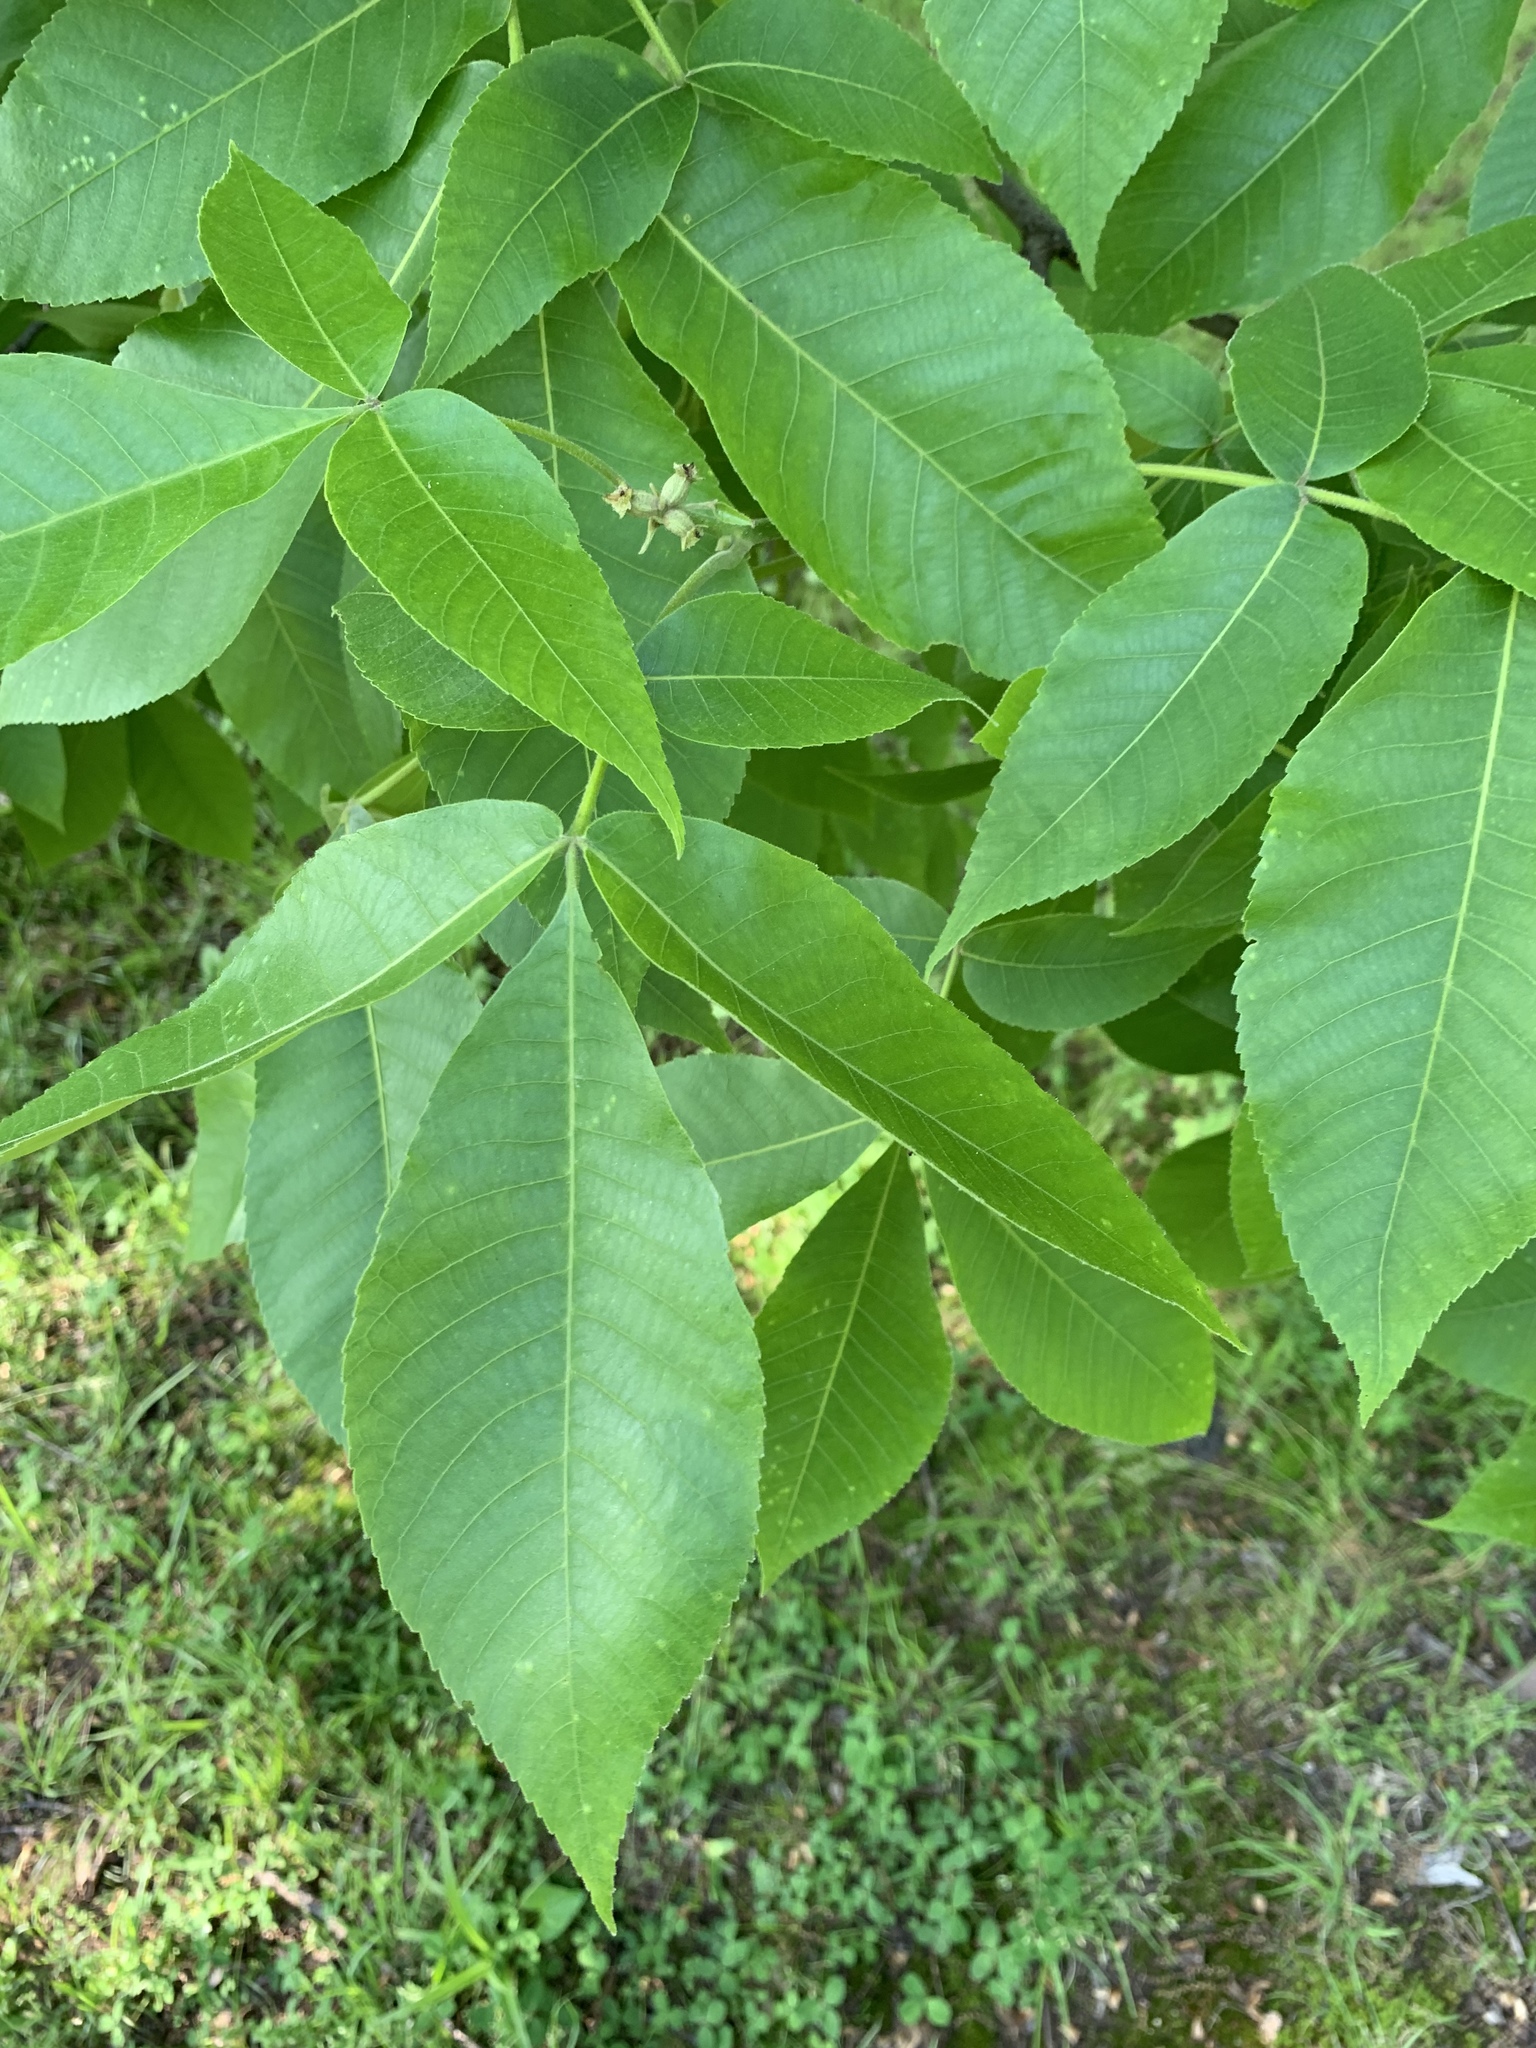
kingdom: Plantae
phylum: Tracheophyta
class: Magnoliopsida
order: Fagales
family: Juglandaceae
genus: Carya
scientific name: Carya ovata
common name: Shagbark hickory
